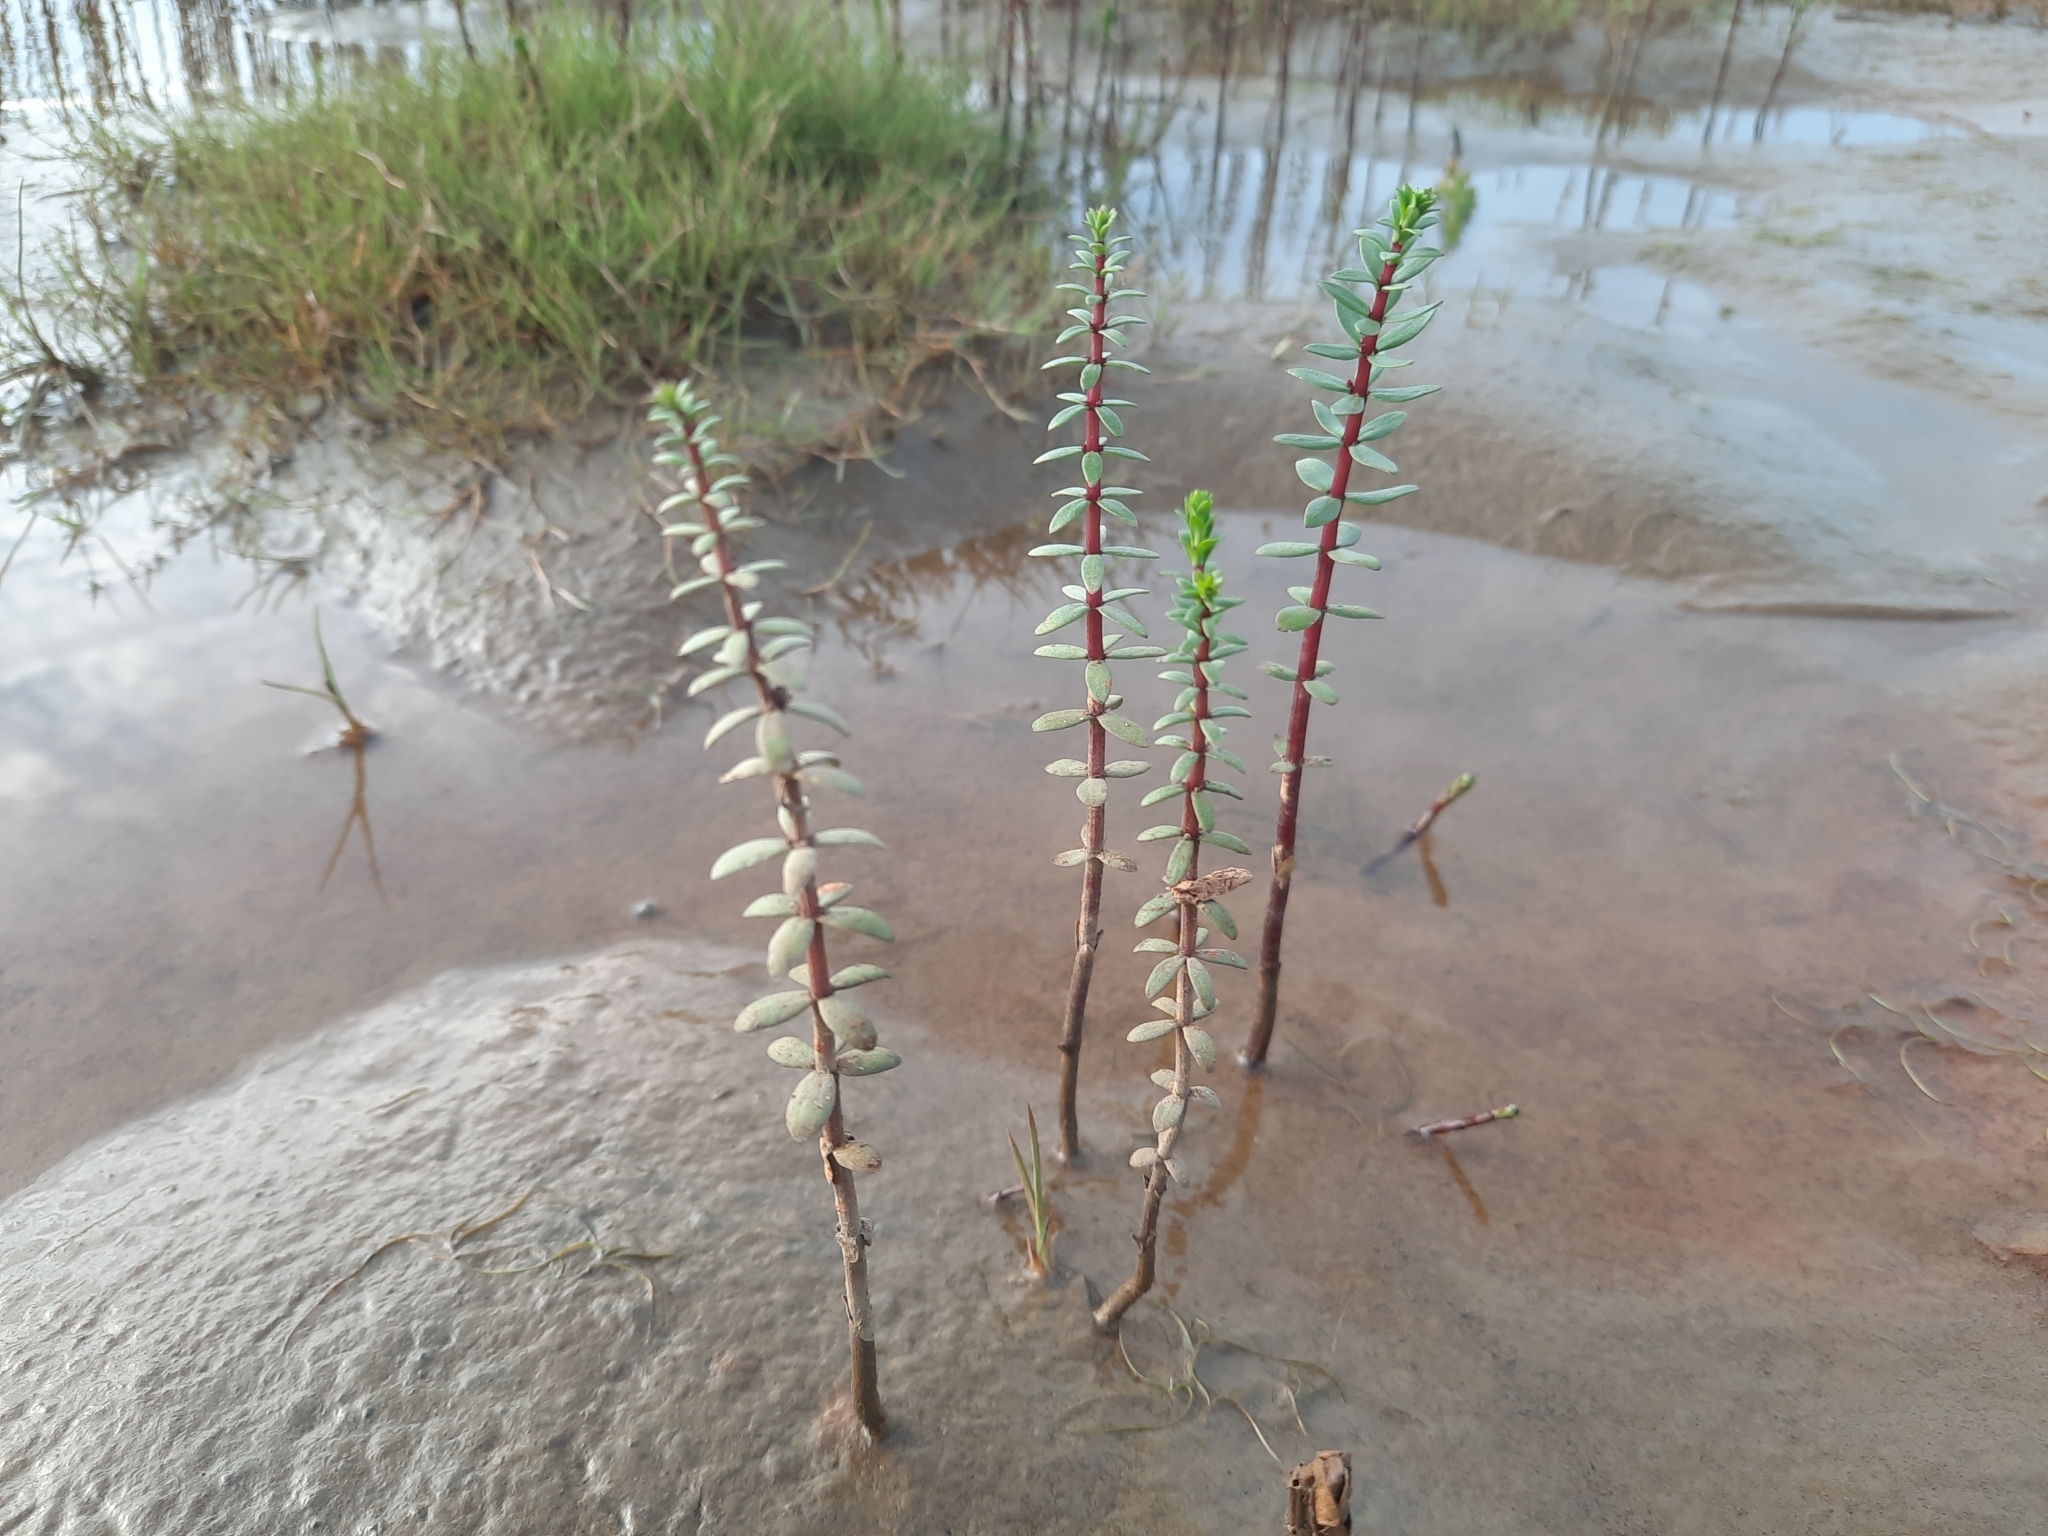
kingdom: Plantae
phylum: Tracheophyta
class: Magnoliopsida
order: Lamiales
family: Plantaginaceae
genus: Hippuris
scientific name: Hippuris tetraphylla
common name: Four-leaved mare's-tail
